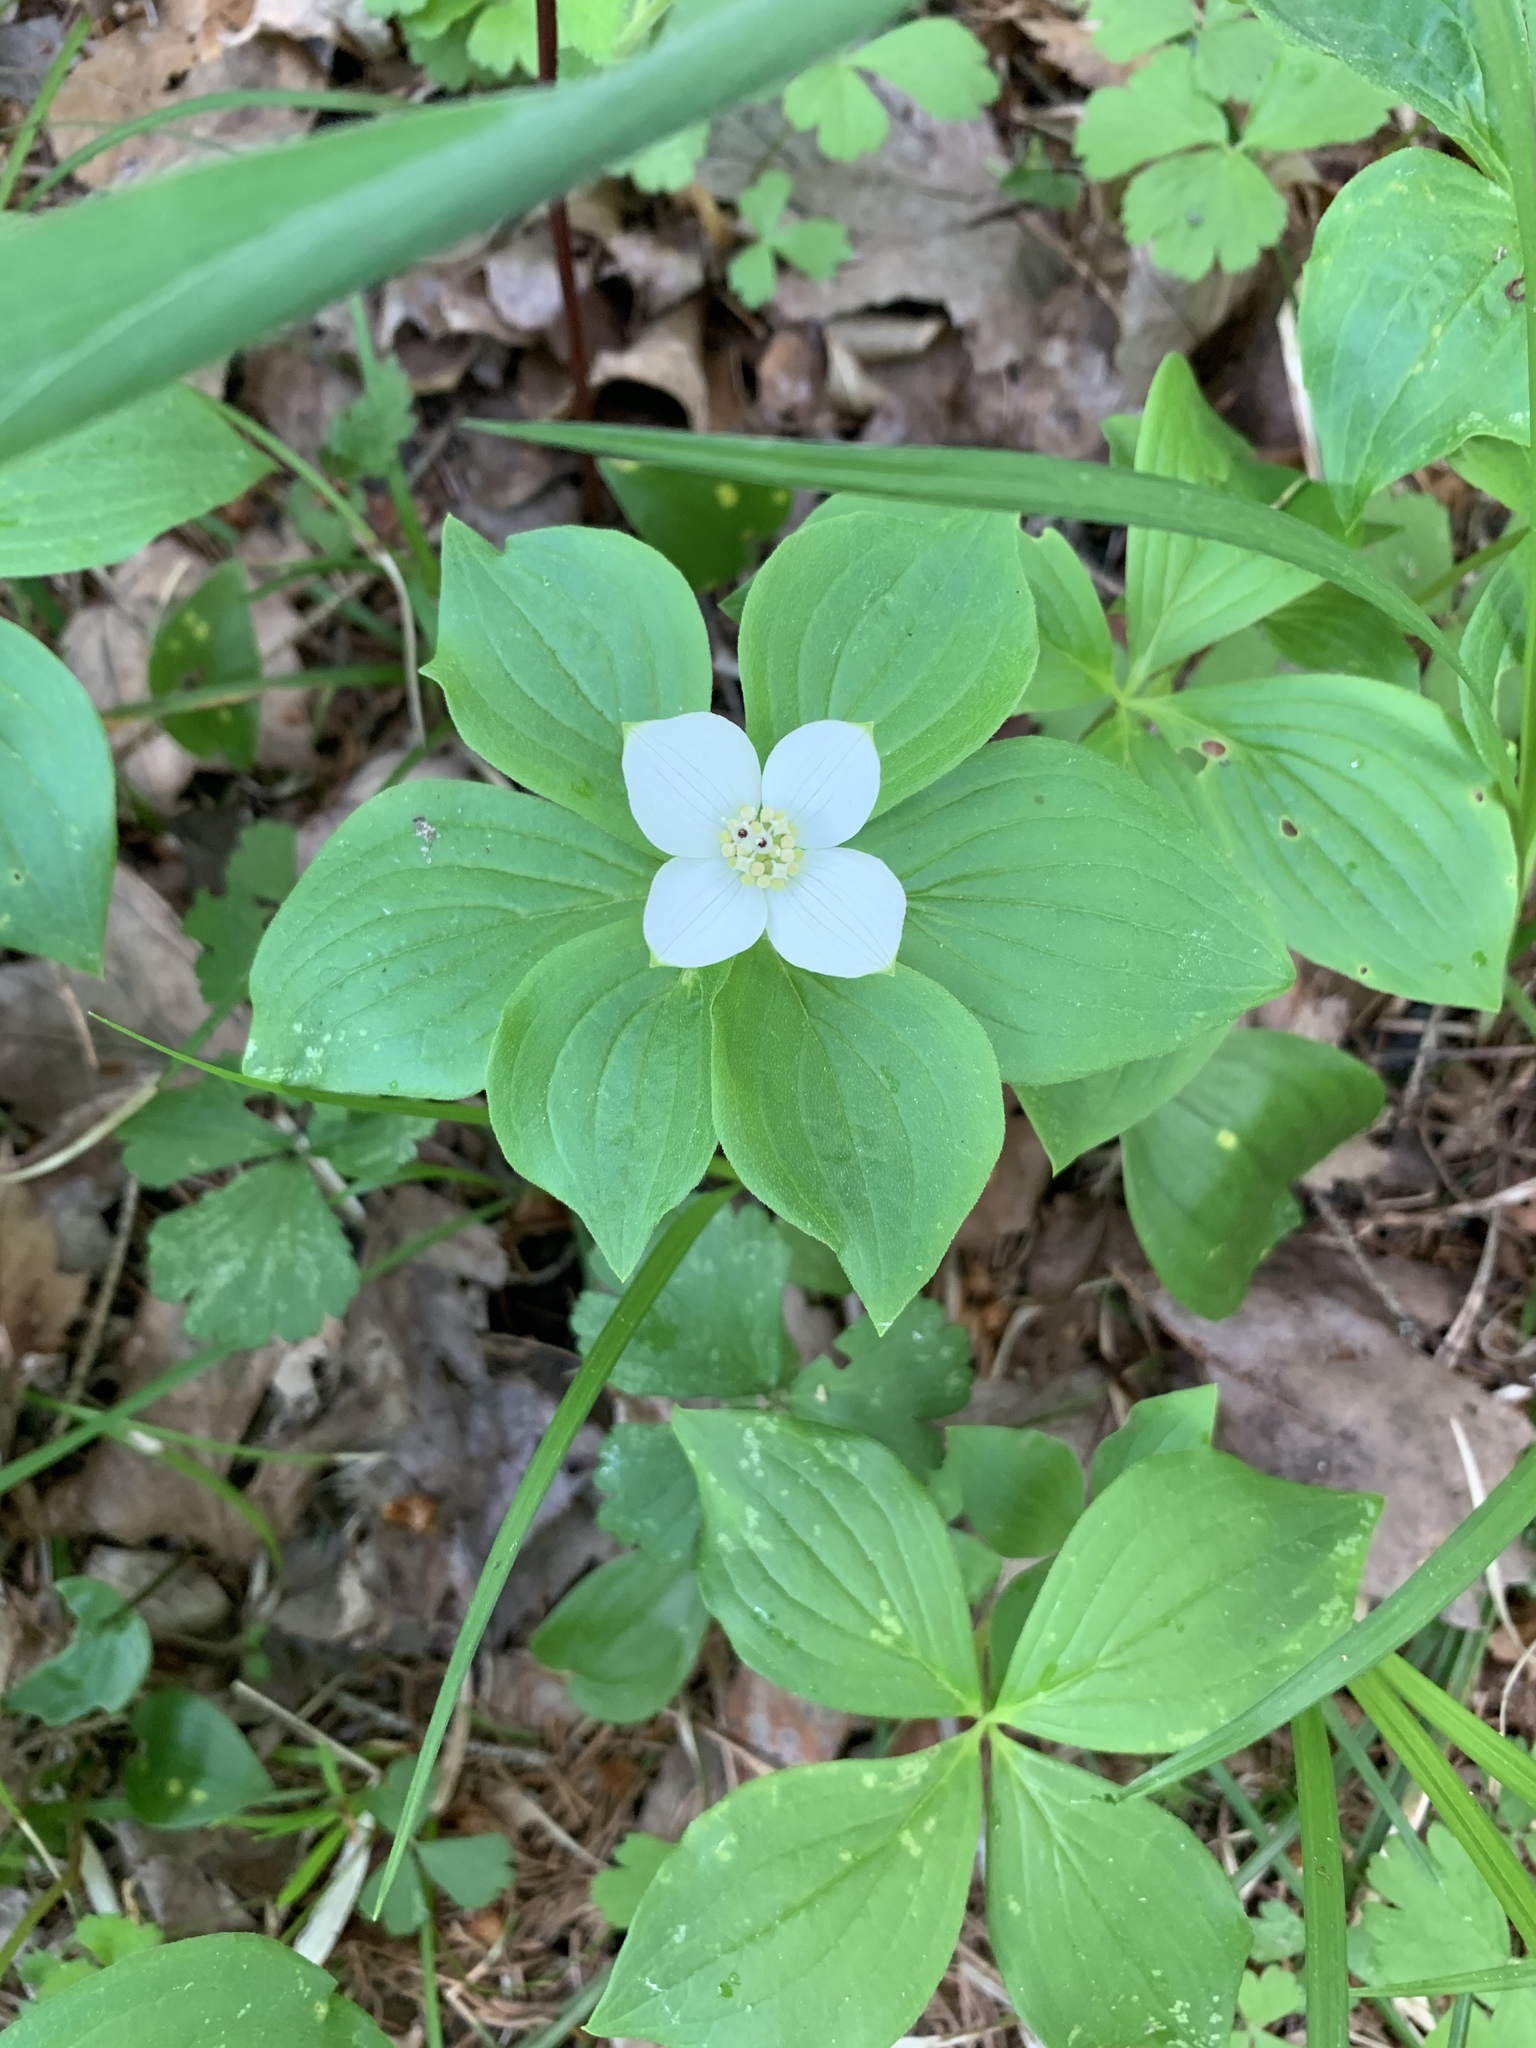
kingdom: Plantae
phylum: Tracheophyta
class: Magnoliopsida
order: Cornales
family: Cornaceae
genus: Cornus
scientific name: Cornus canadensis
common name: Creeping dogwood
